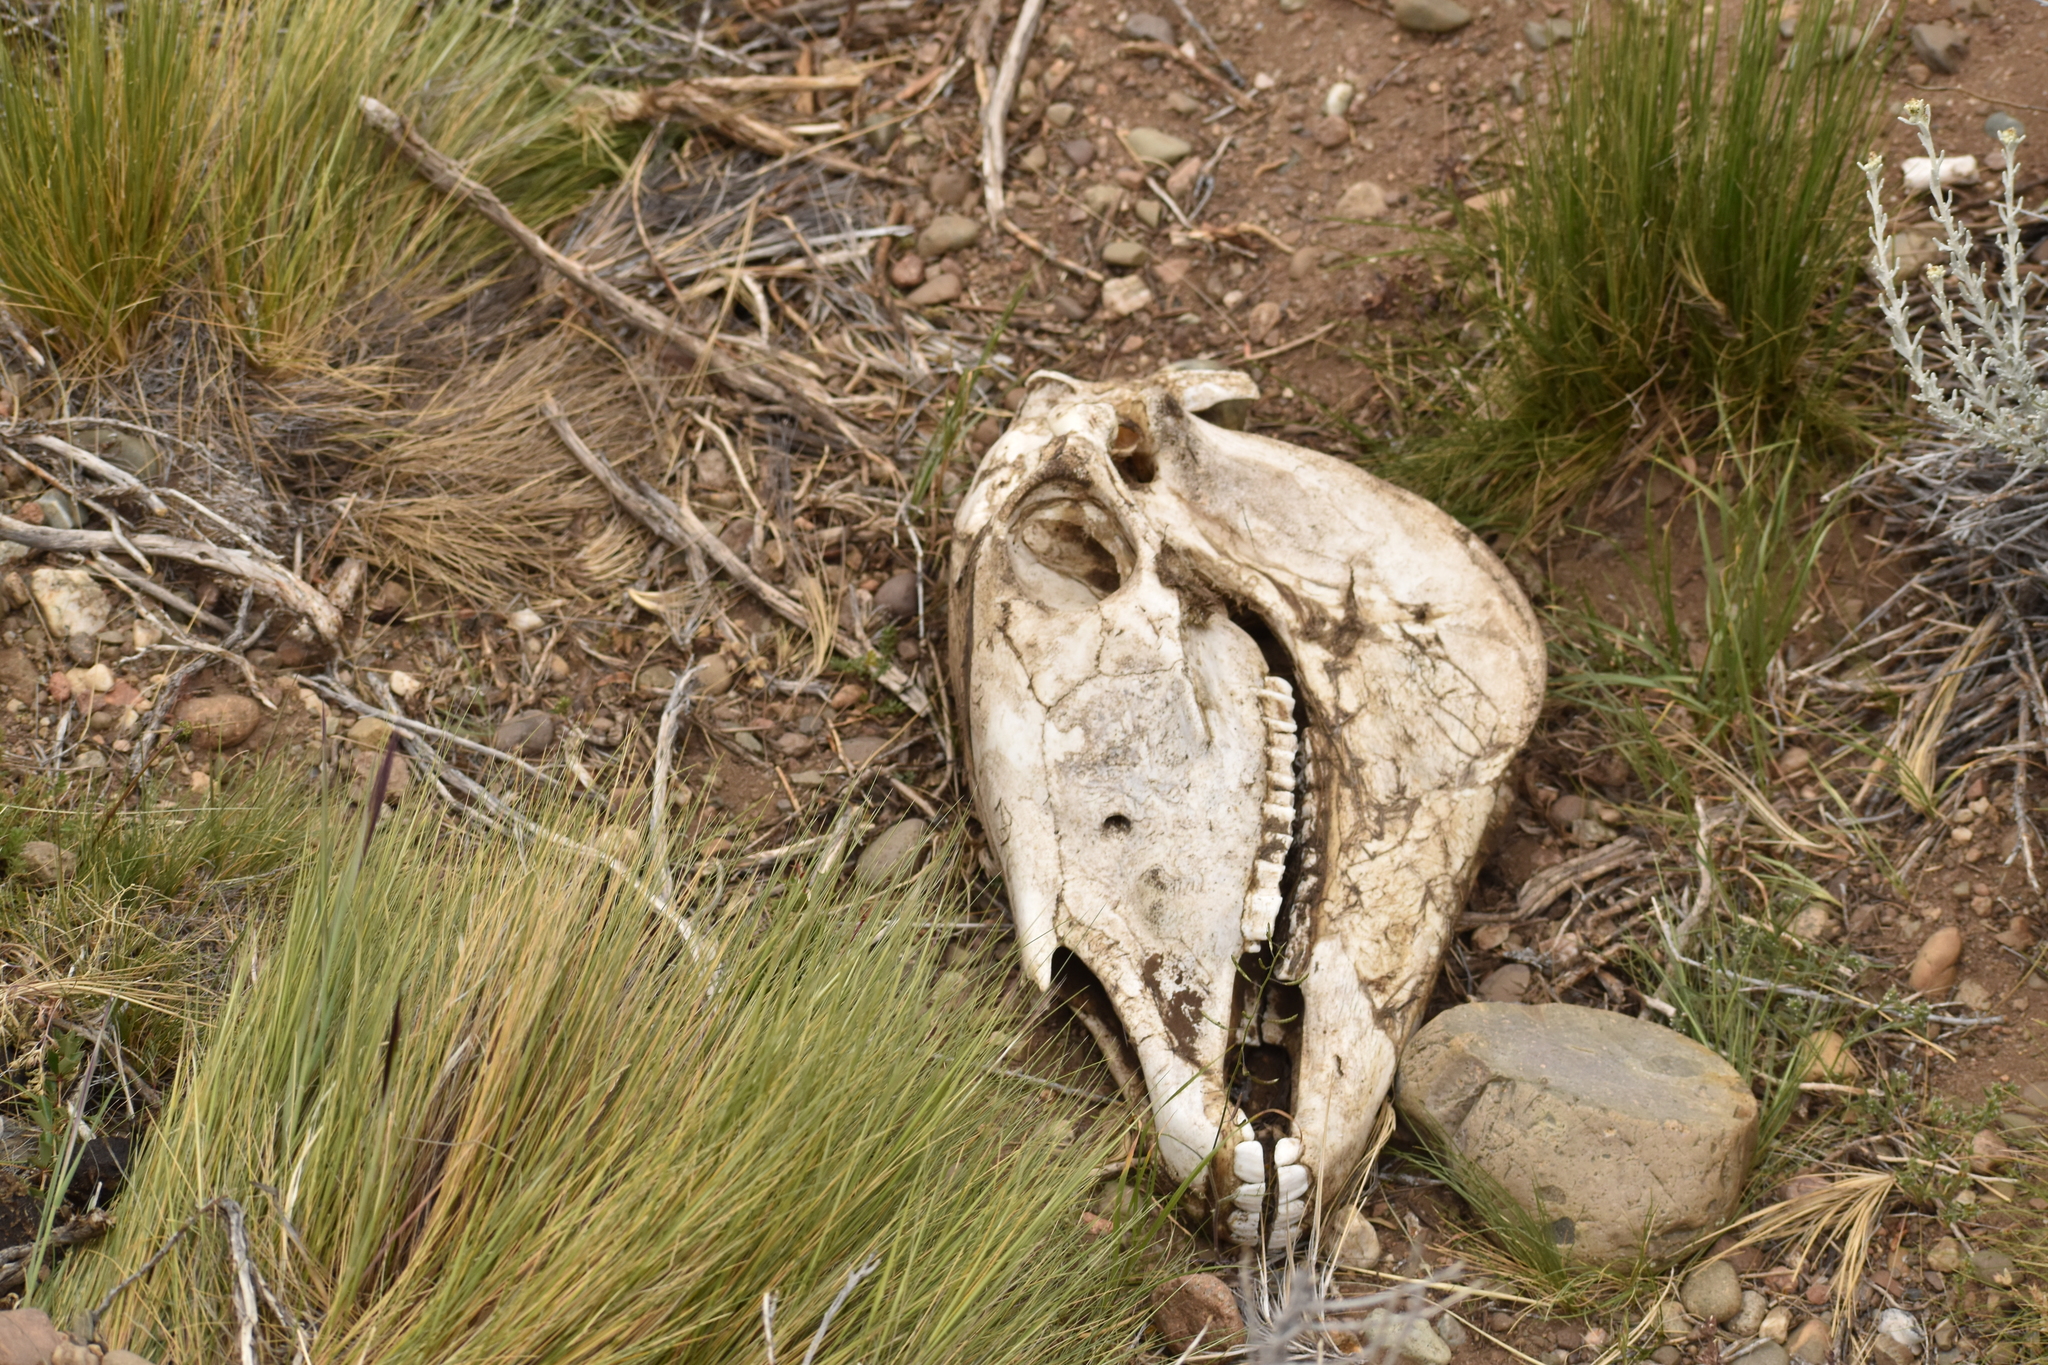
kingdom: Animalia
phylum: Chordata
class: Mammalia
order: Perissodactyla
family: Equidae
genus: Equus
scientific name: Equus caballus
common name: Horse
